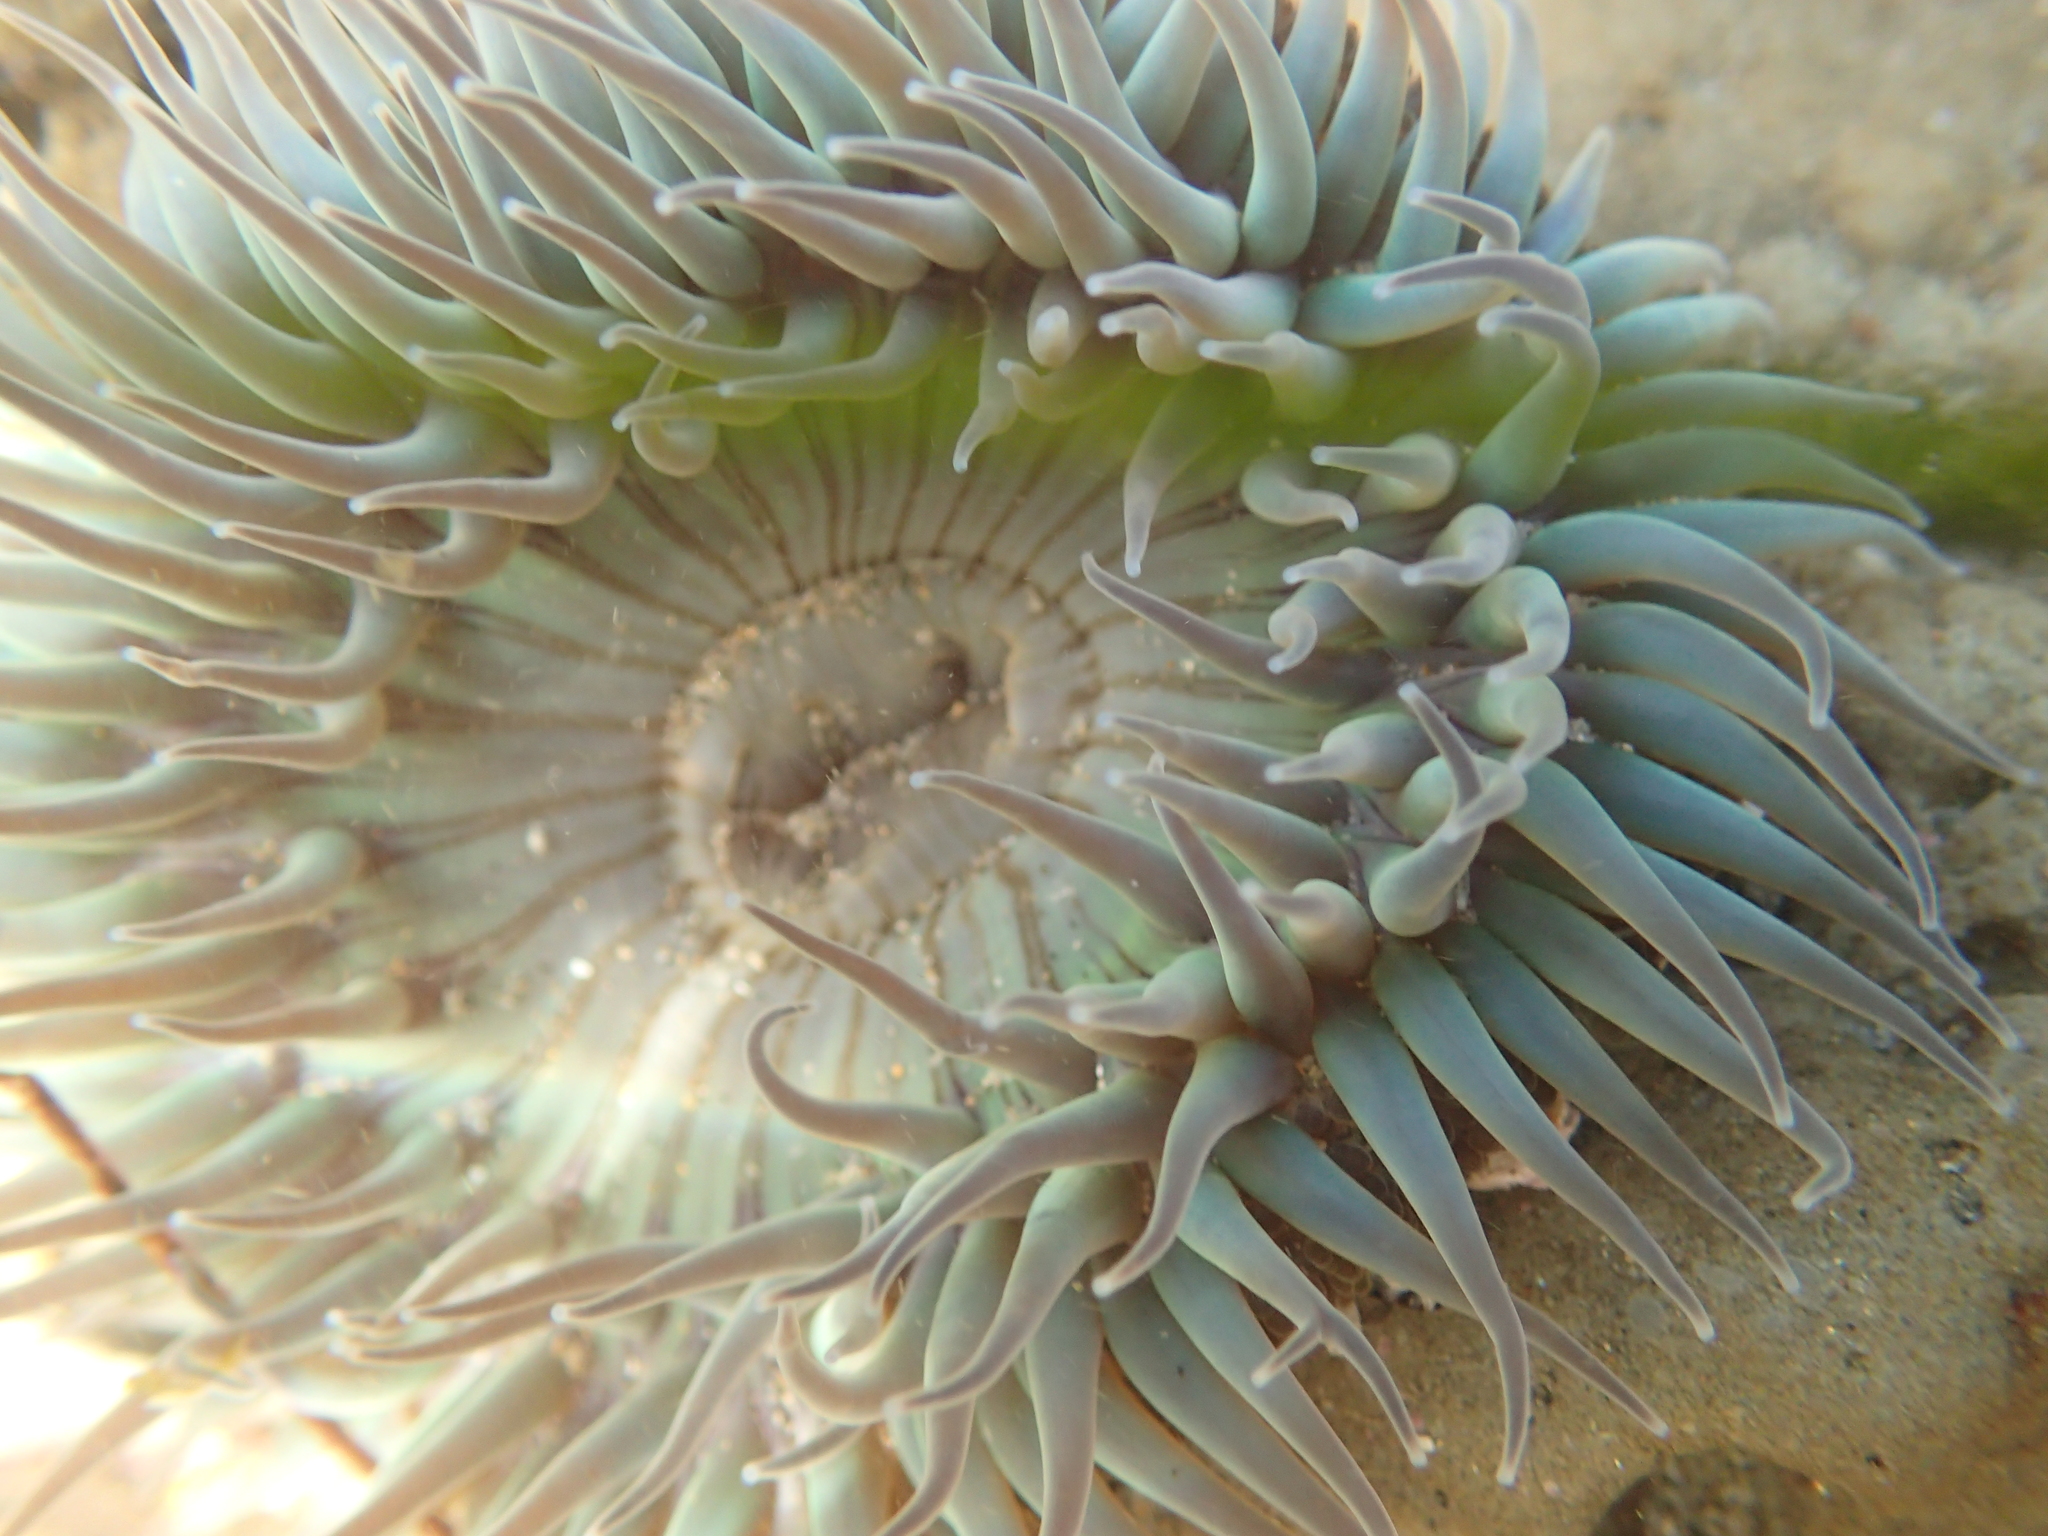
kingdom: Animalia
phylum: Cnidaria
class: Anthozoa
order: Actiniaria
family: Actiniidae
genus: Anthopleura
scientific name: Anthopleura sola
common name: Sun anemone
